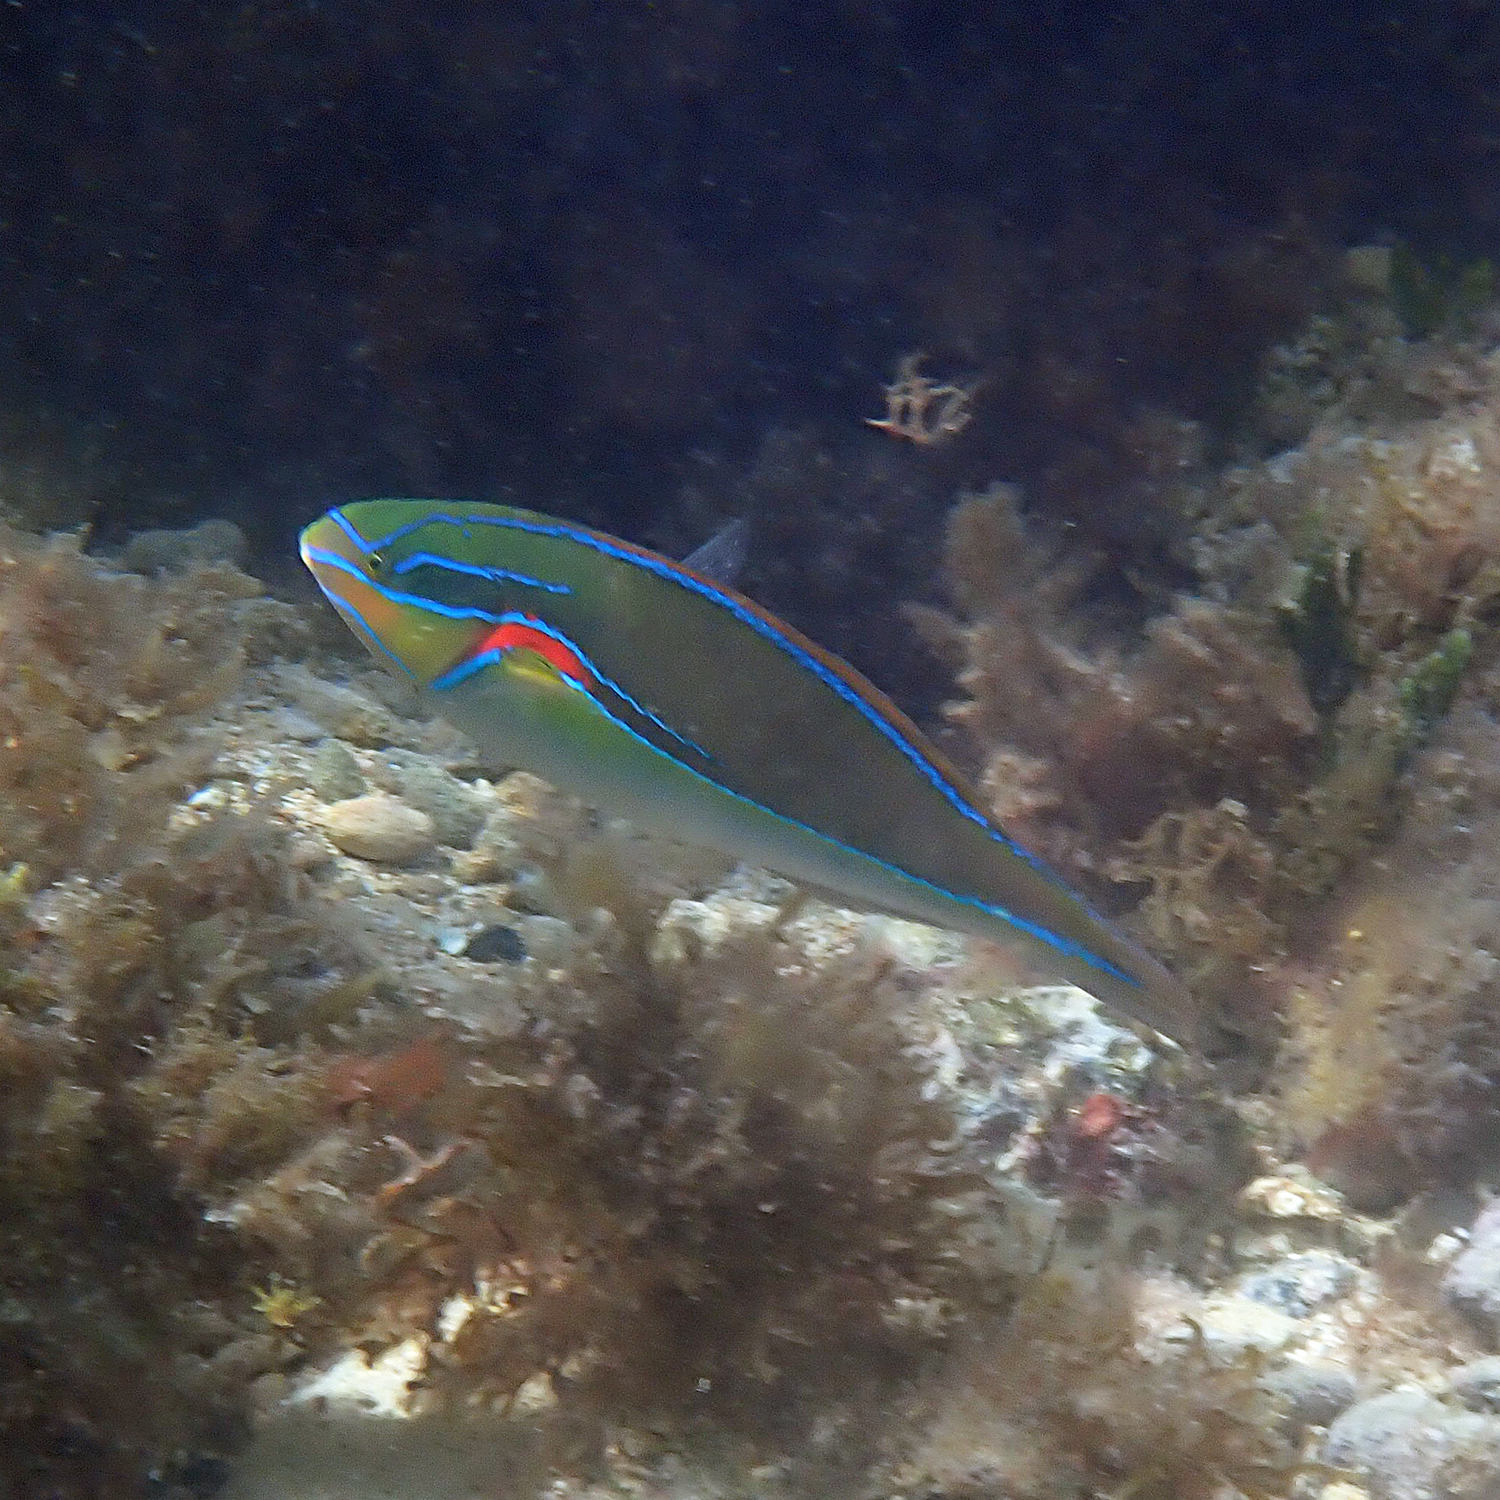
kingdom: Animalia
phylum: Chordata
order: Perciformes
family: Labridae
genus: Stethojulis
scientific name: Stethojulis bandanensis
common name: Red shoulder wrasse
